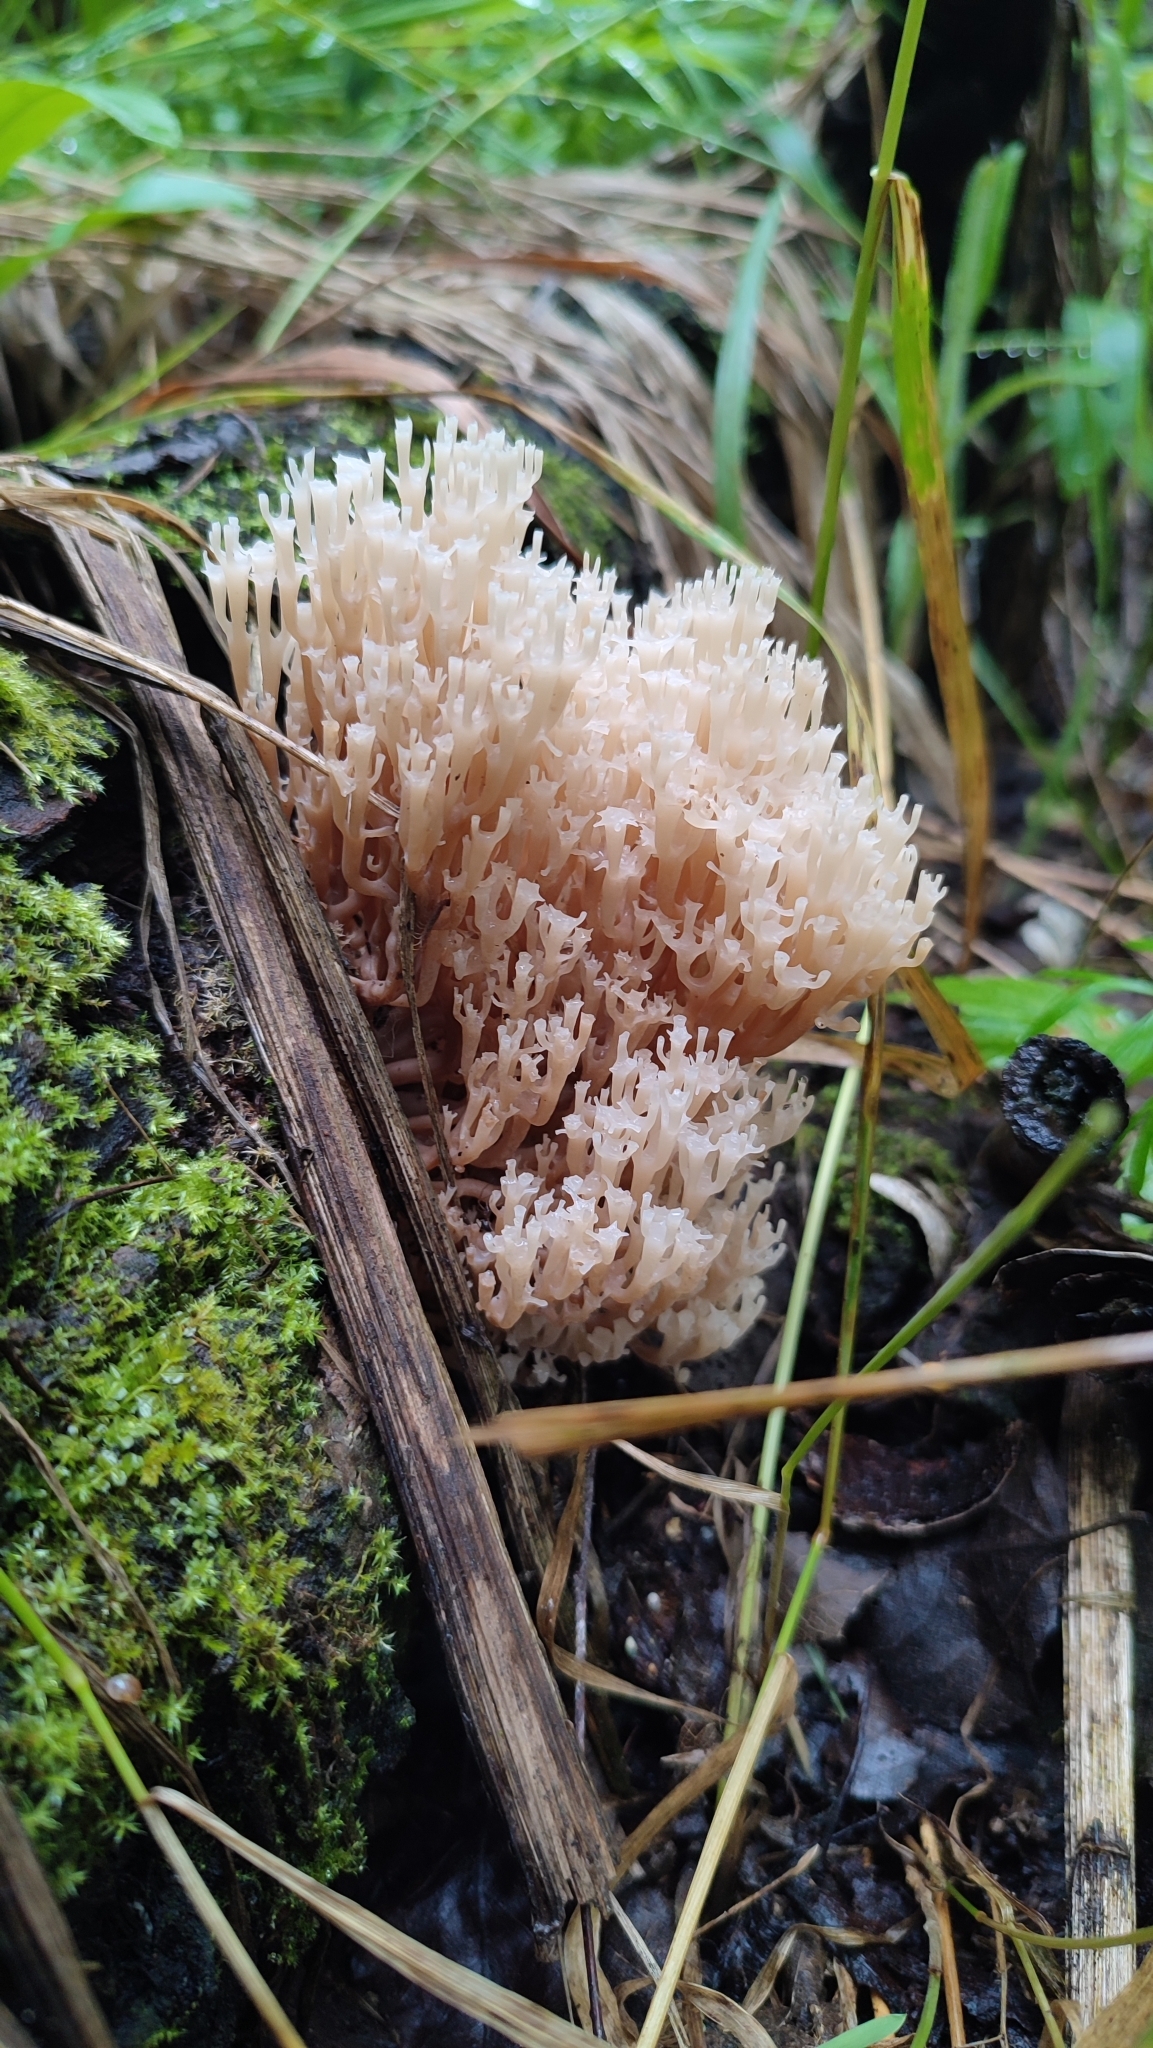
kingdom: Fungi
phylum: Basidiomycota
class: Agaricomycetes
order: Russulales
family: Auriscalpiaceae
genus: Artomyces
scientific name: Artomyces pyxidatus
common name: Crown-tipped coral fungus
